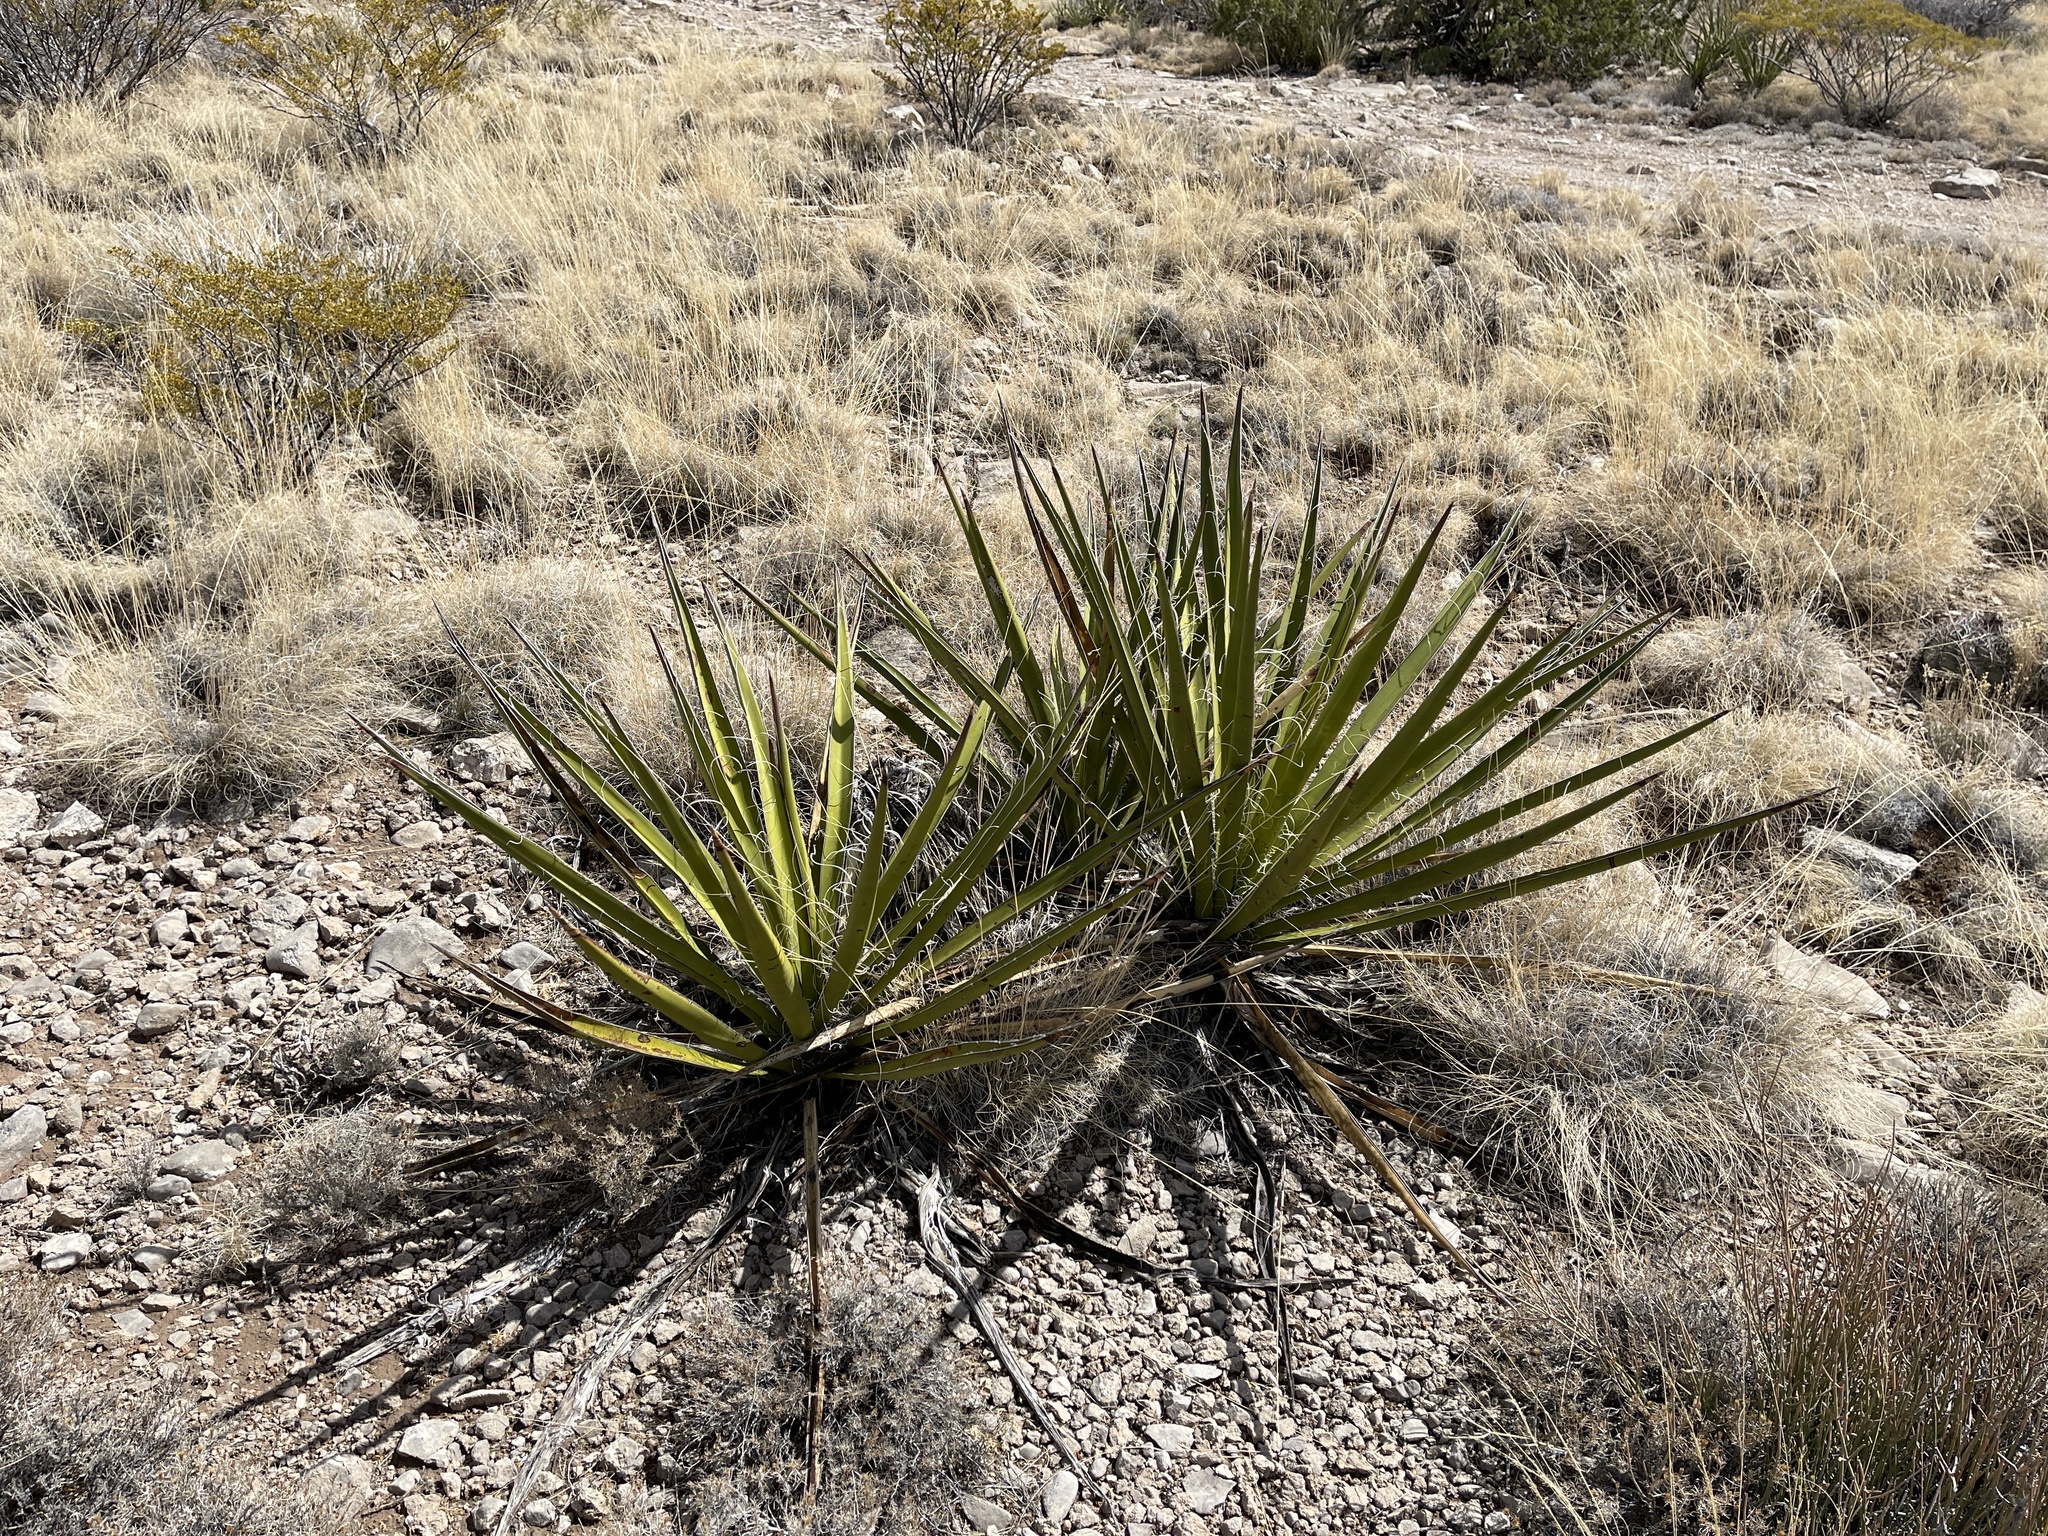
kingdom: Plantae
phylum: Tracheophyta
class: Liliopsida
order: Asparagales
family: Asparagaceae
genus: Yucca
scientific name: Yucca baccata
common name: Banana yucca
